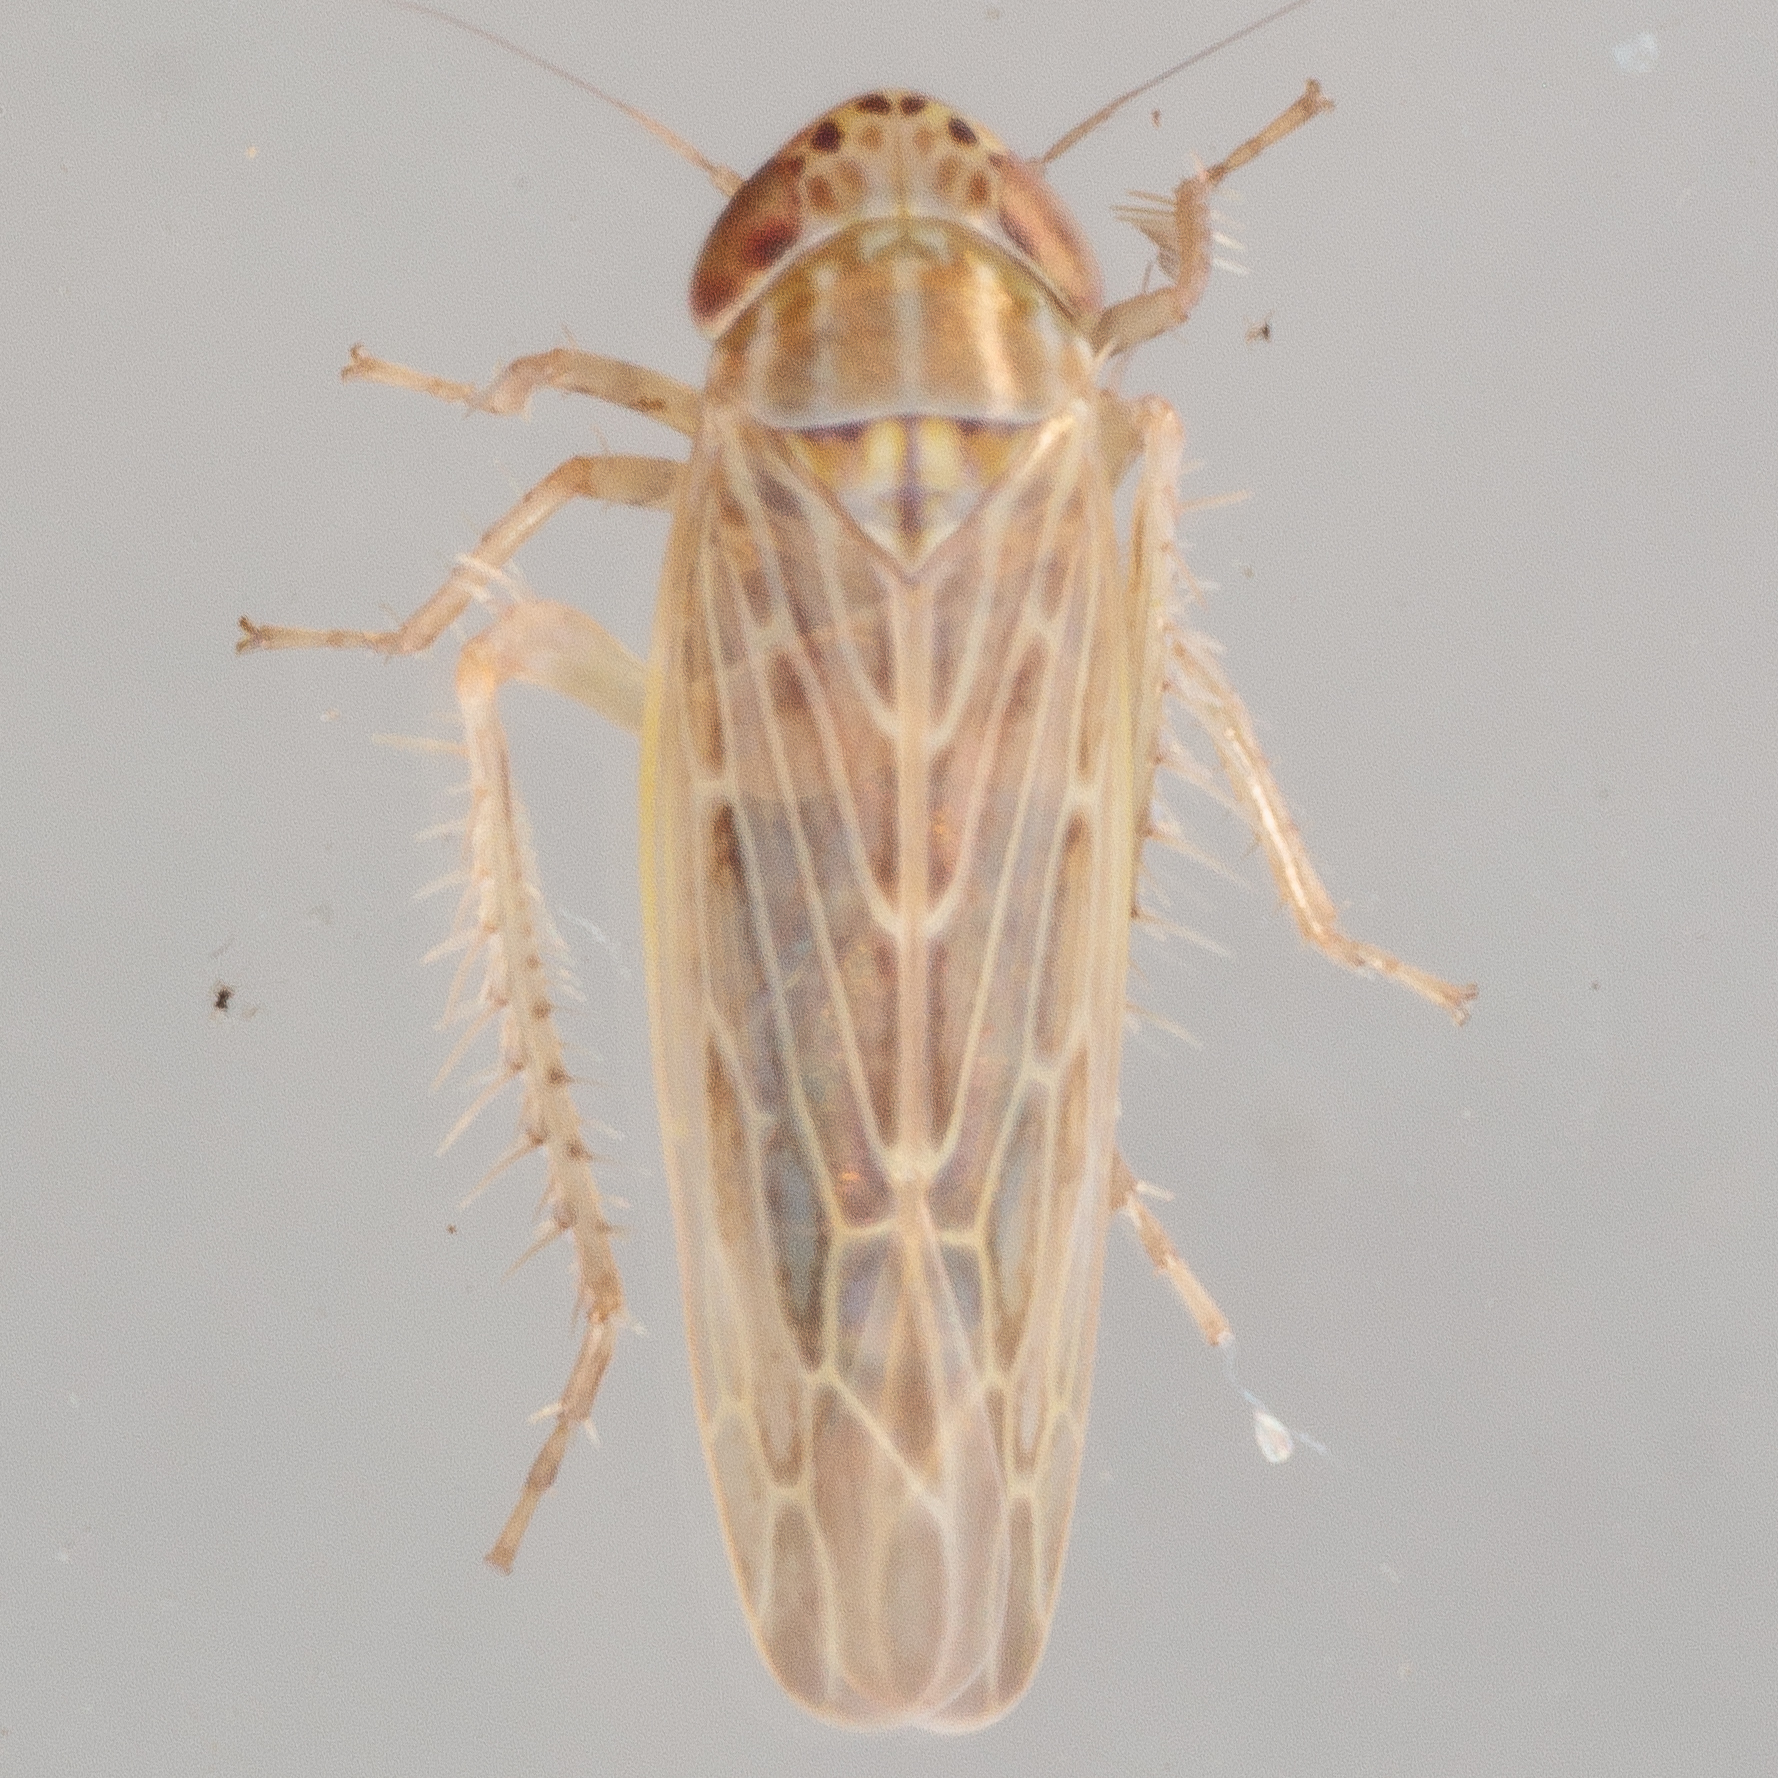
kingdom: Animalia
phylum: Arthropoda
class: Insecta
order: Hemiptera
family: Cicadellidae
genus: Graminella
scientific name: Graminella sonora
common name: Lesser lawn leafhopper
